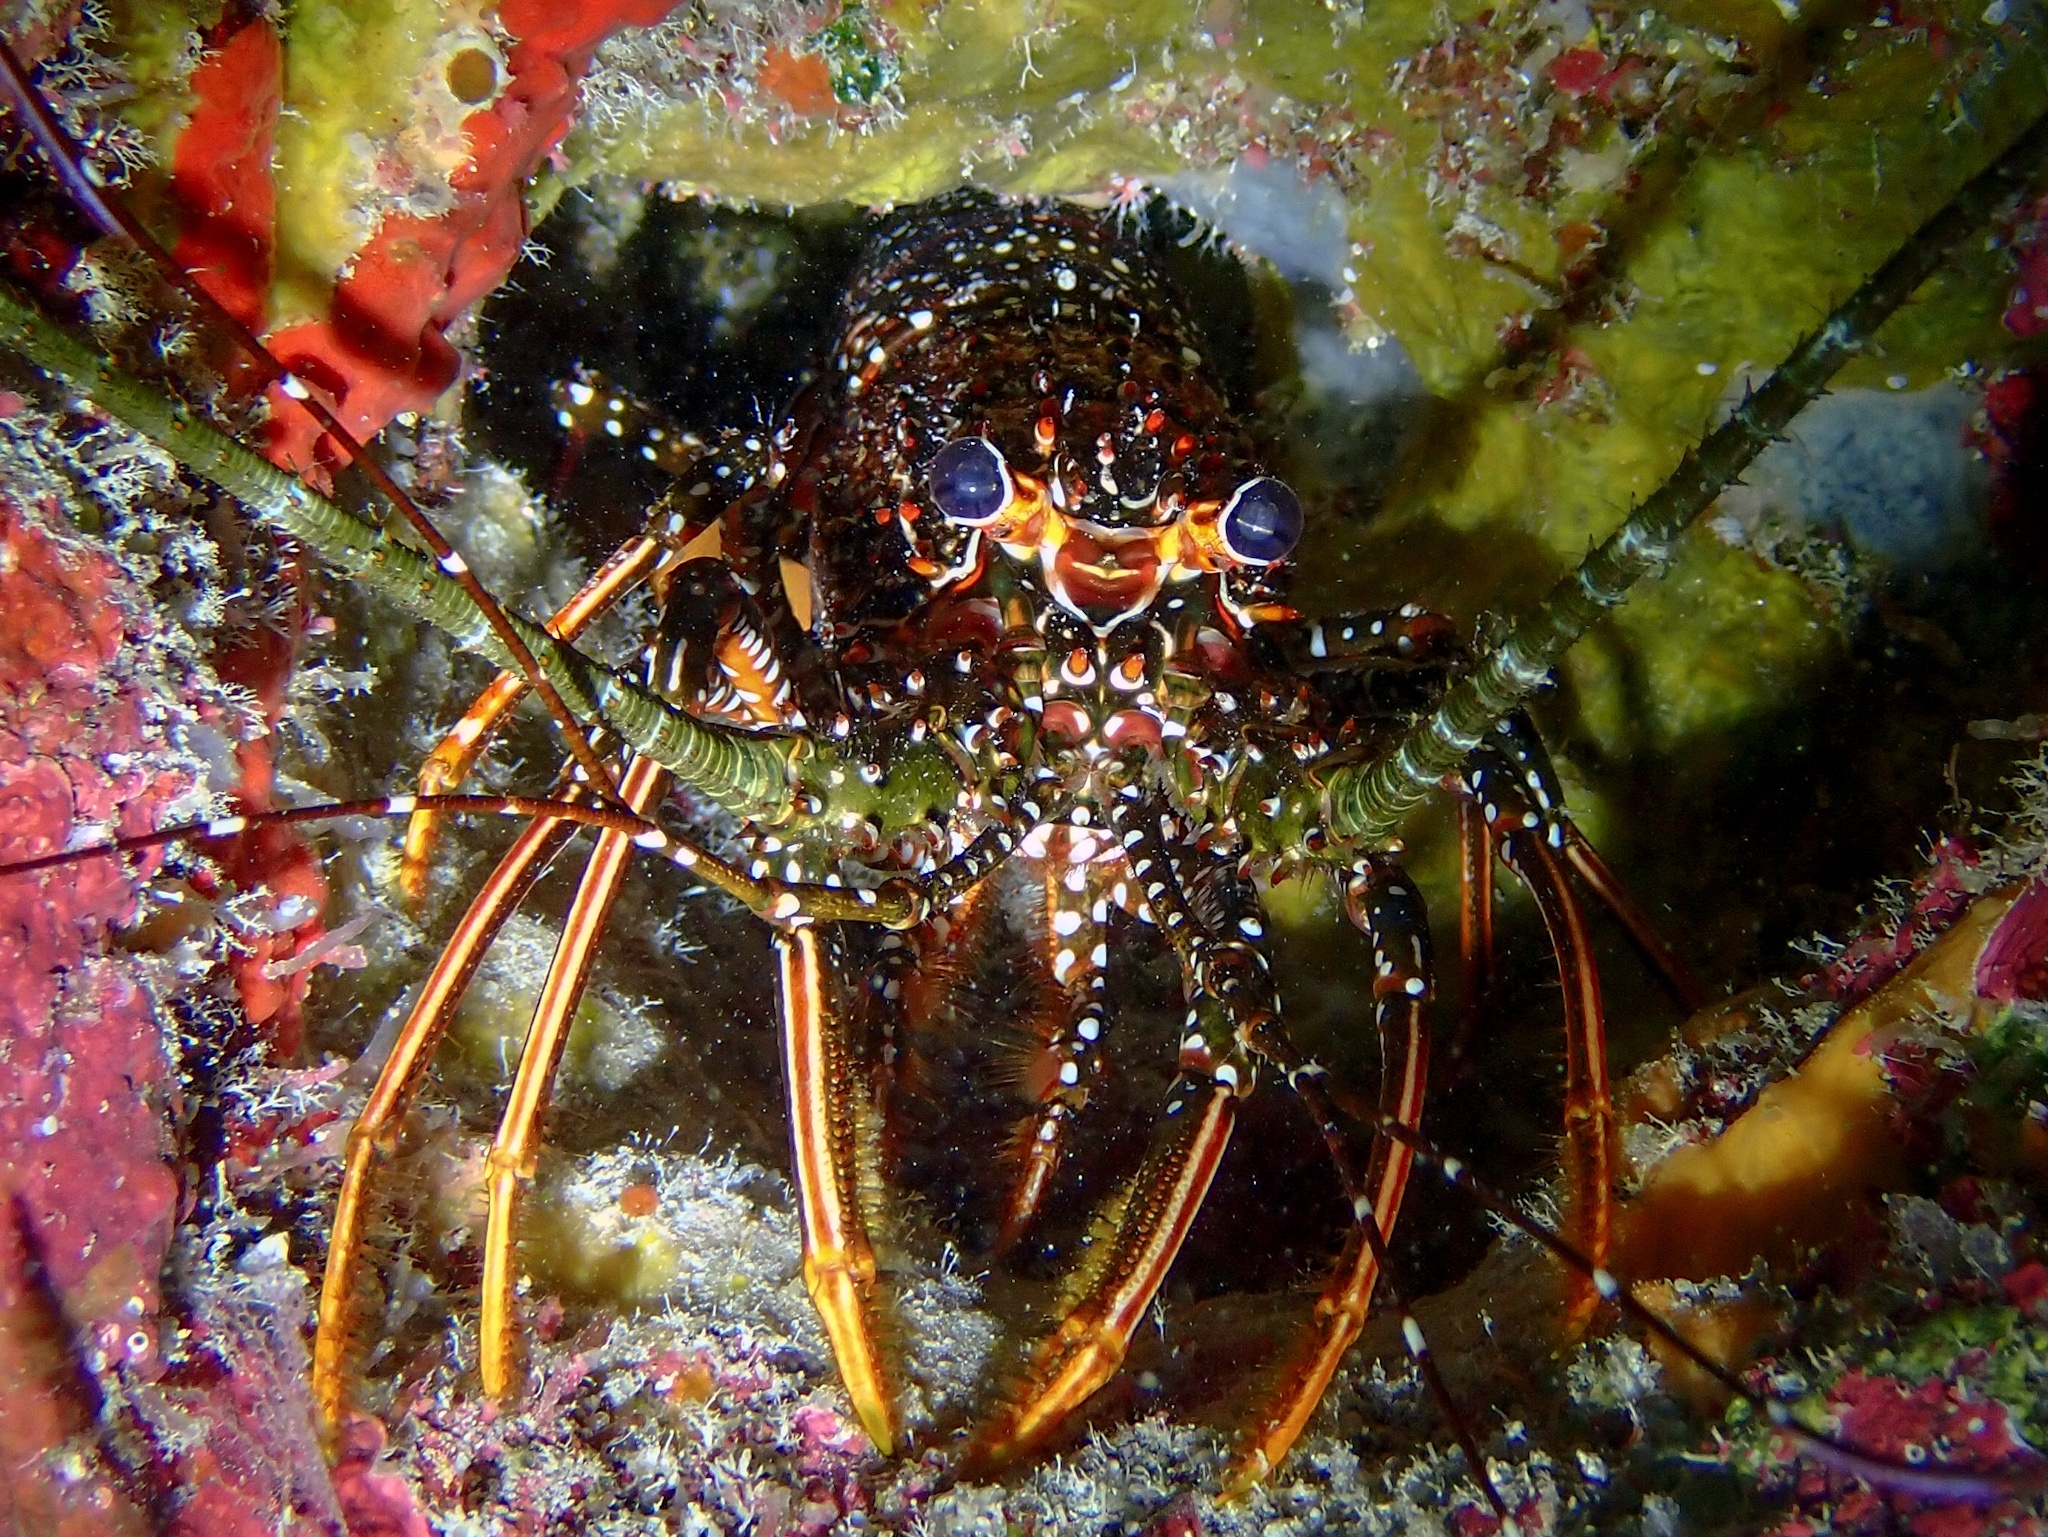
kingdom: Animalia
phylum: Arthropoda
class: Malacostraca
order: Decapoda
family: Palinuridae
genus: Panulirus
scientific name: Panulirus guttatus
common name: Spotted spiny lobster
